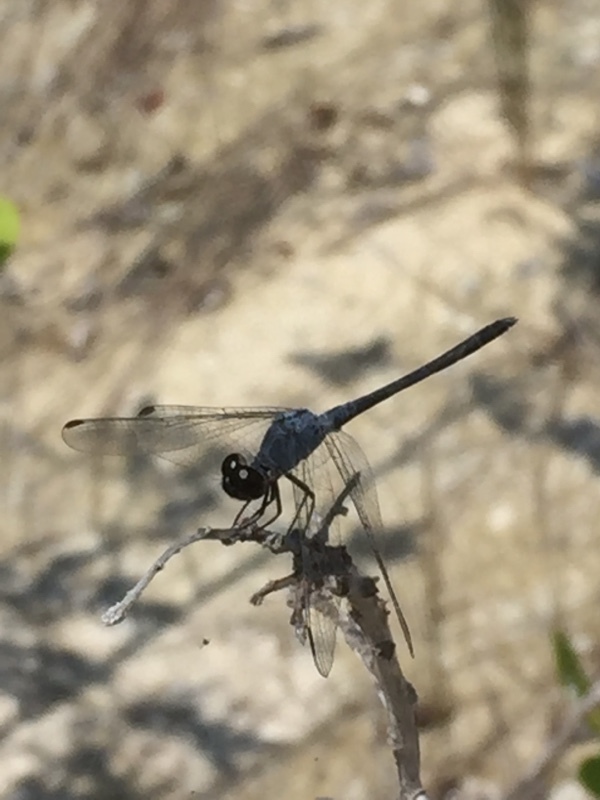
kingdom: Animalia
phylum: Arthropoda
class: Insecta
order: Odonata
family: Libellulidae
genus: Erythrodiplax
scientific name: Erythrodiplax berenice
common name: Seaside dragonlet
